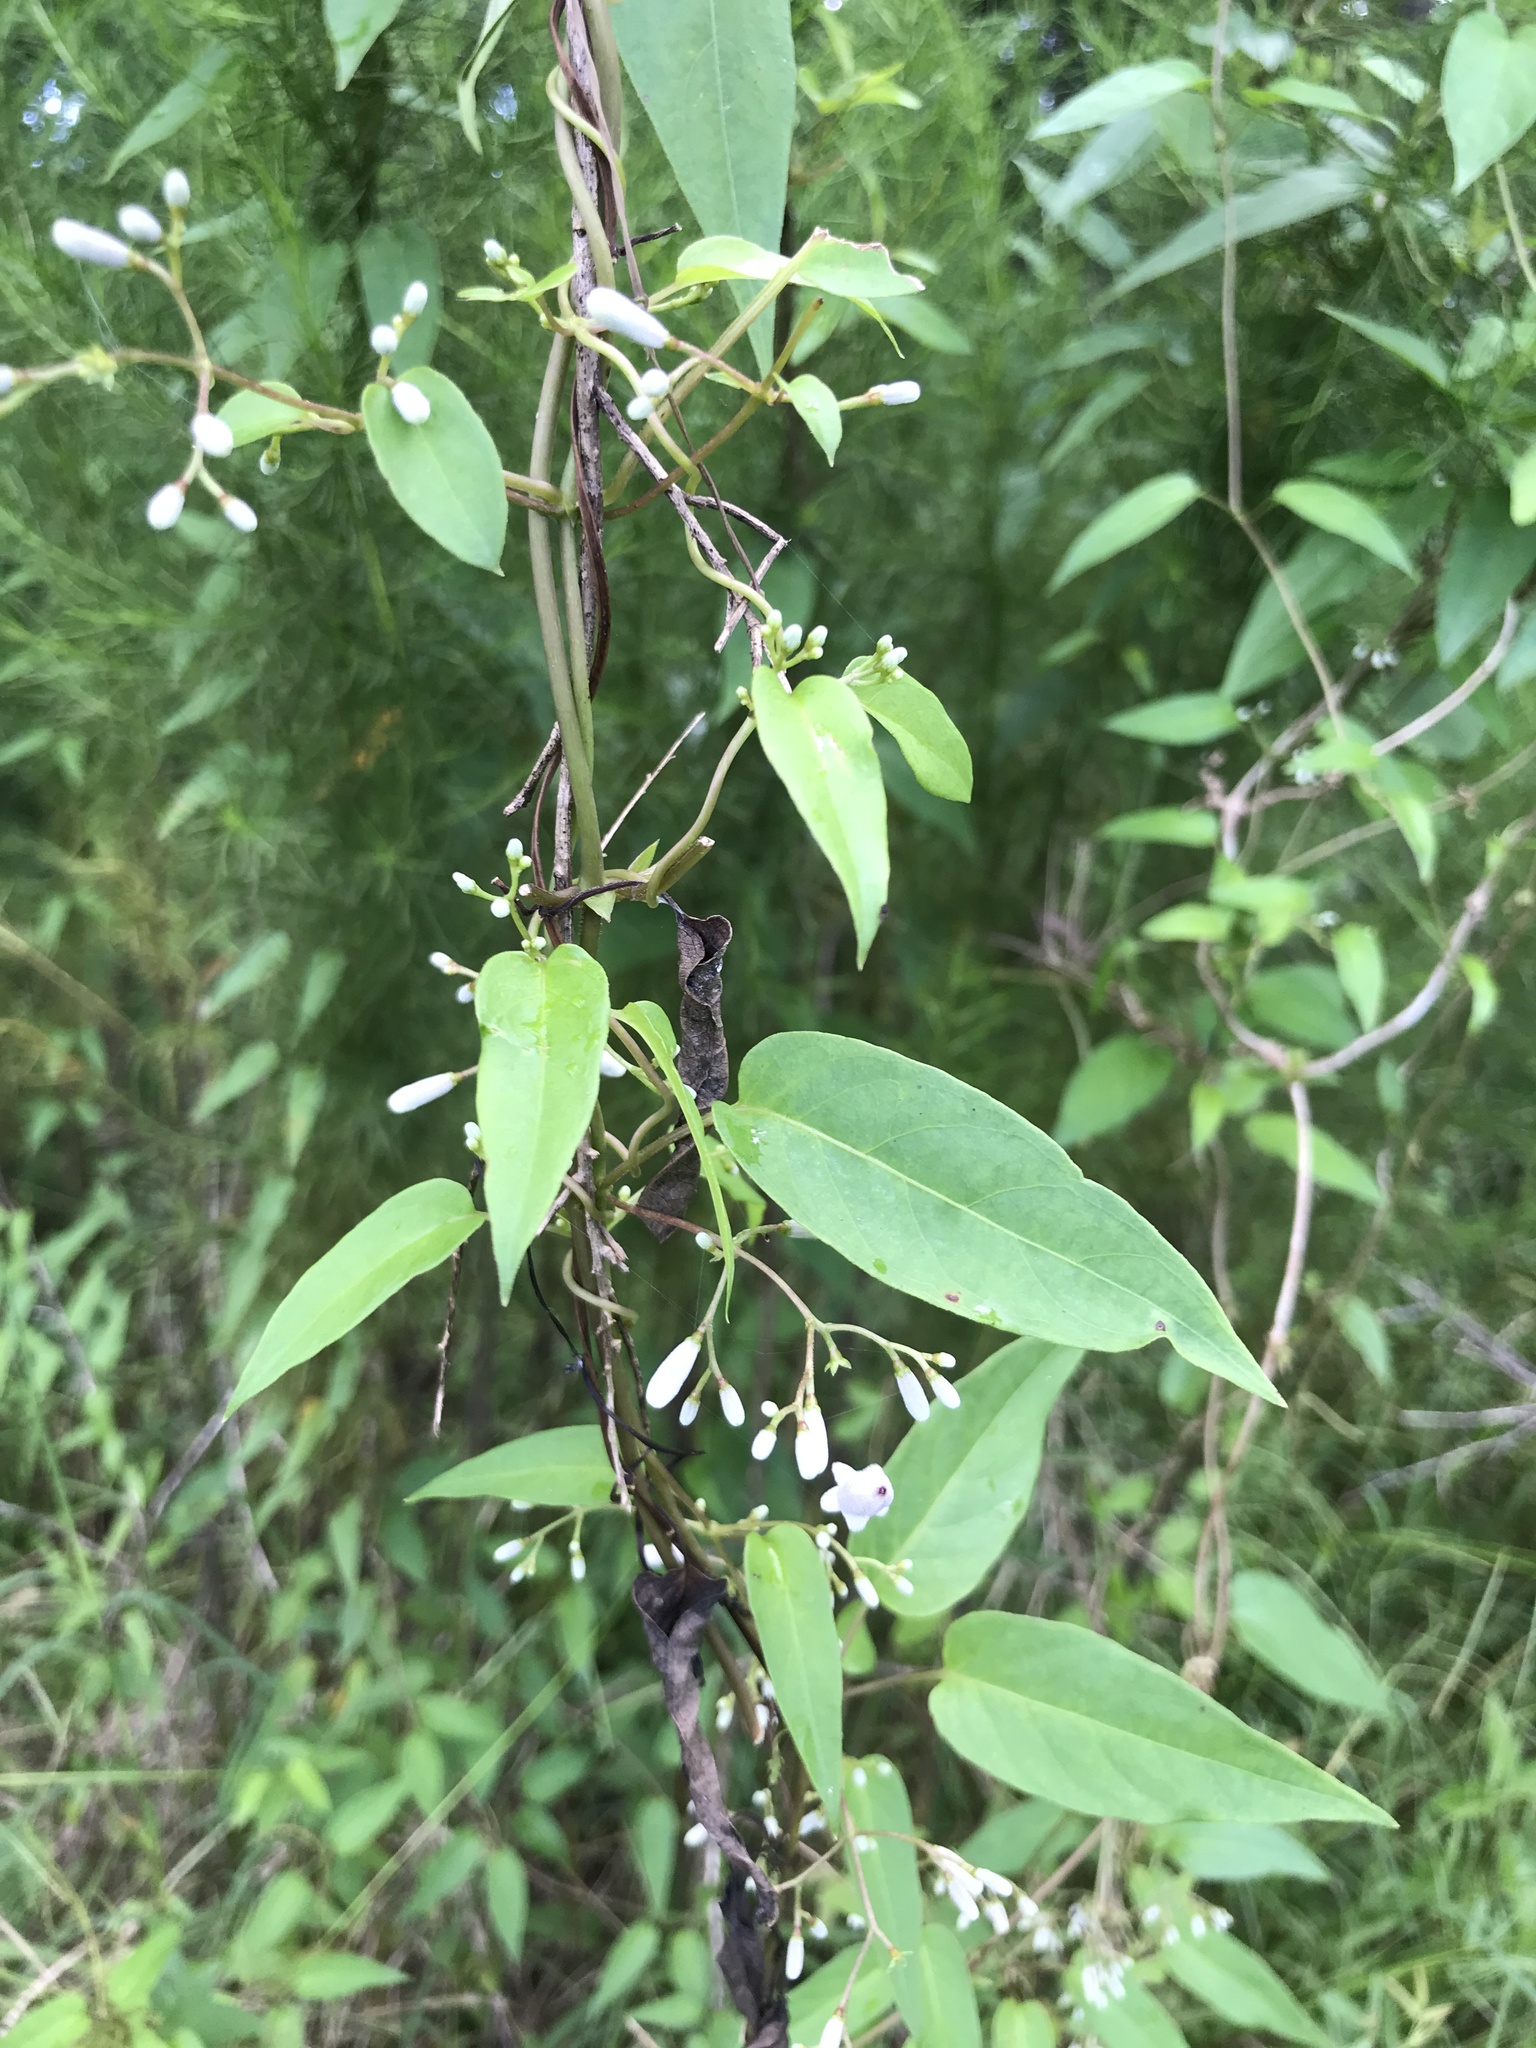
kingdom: Plantae
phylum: Tracheophyta
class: Magnoliopsida
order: Gentianales
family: Rubiaceae
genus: Paederia
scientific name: Paederia foetida
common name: Stinkvine
